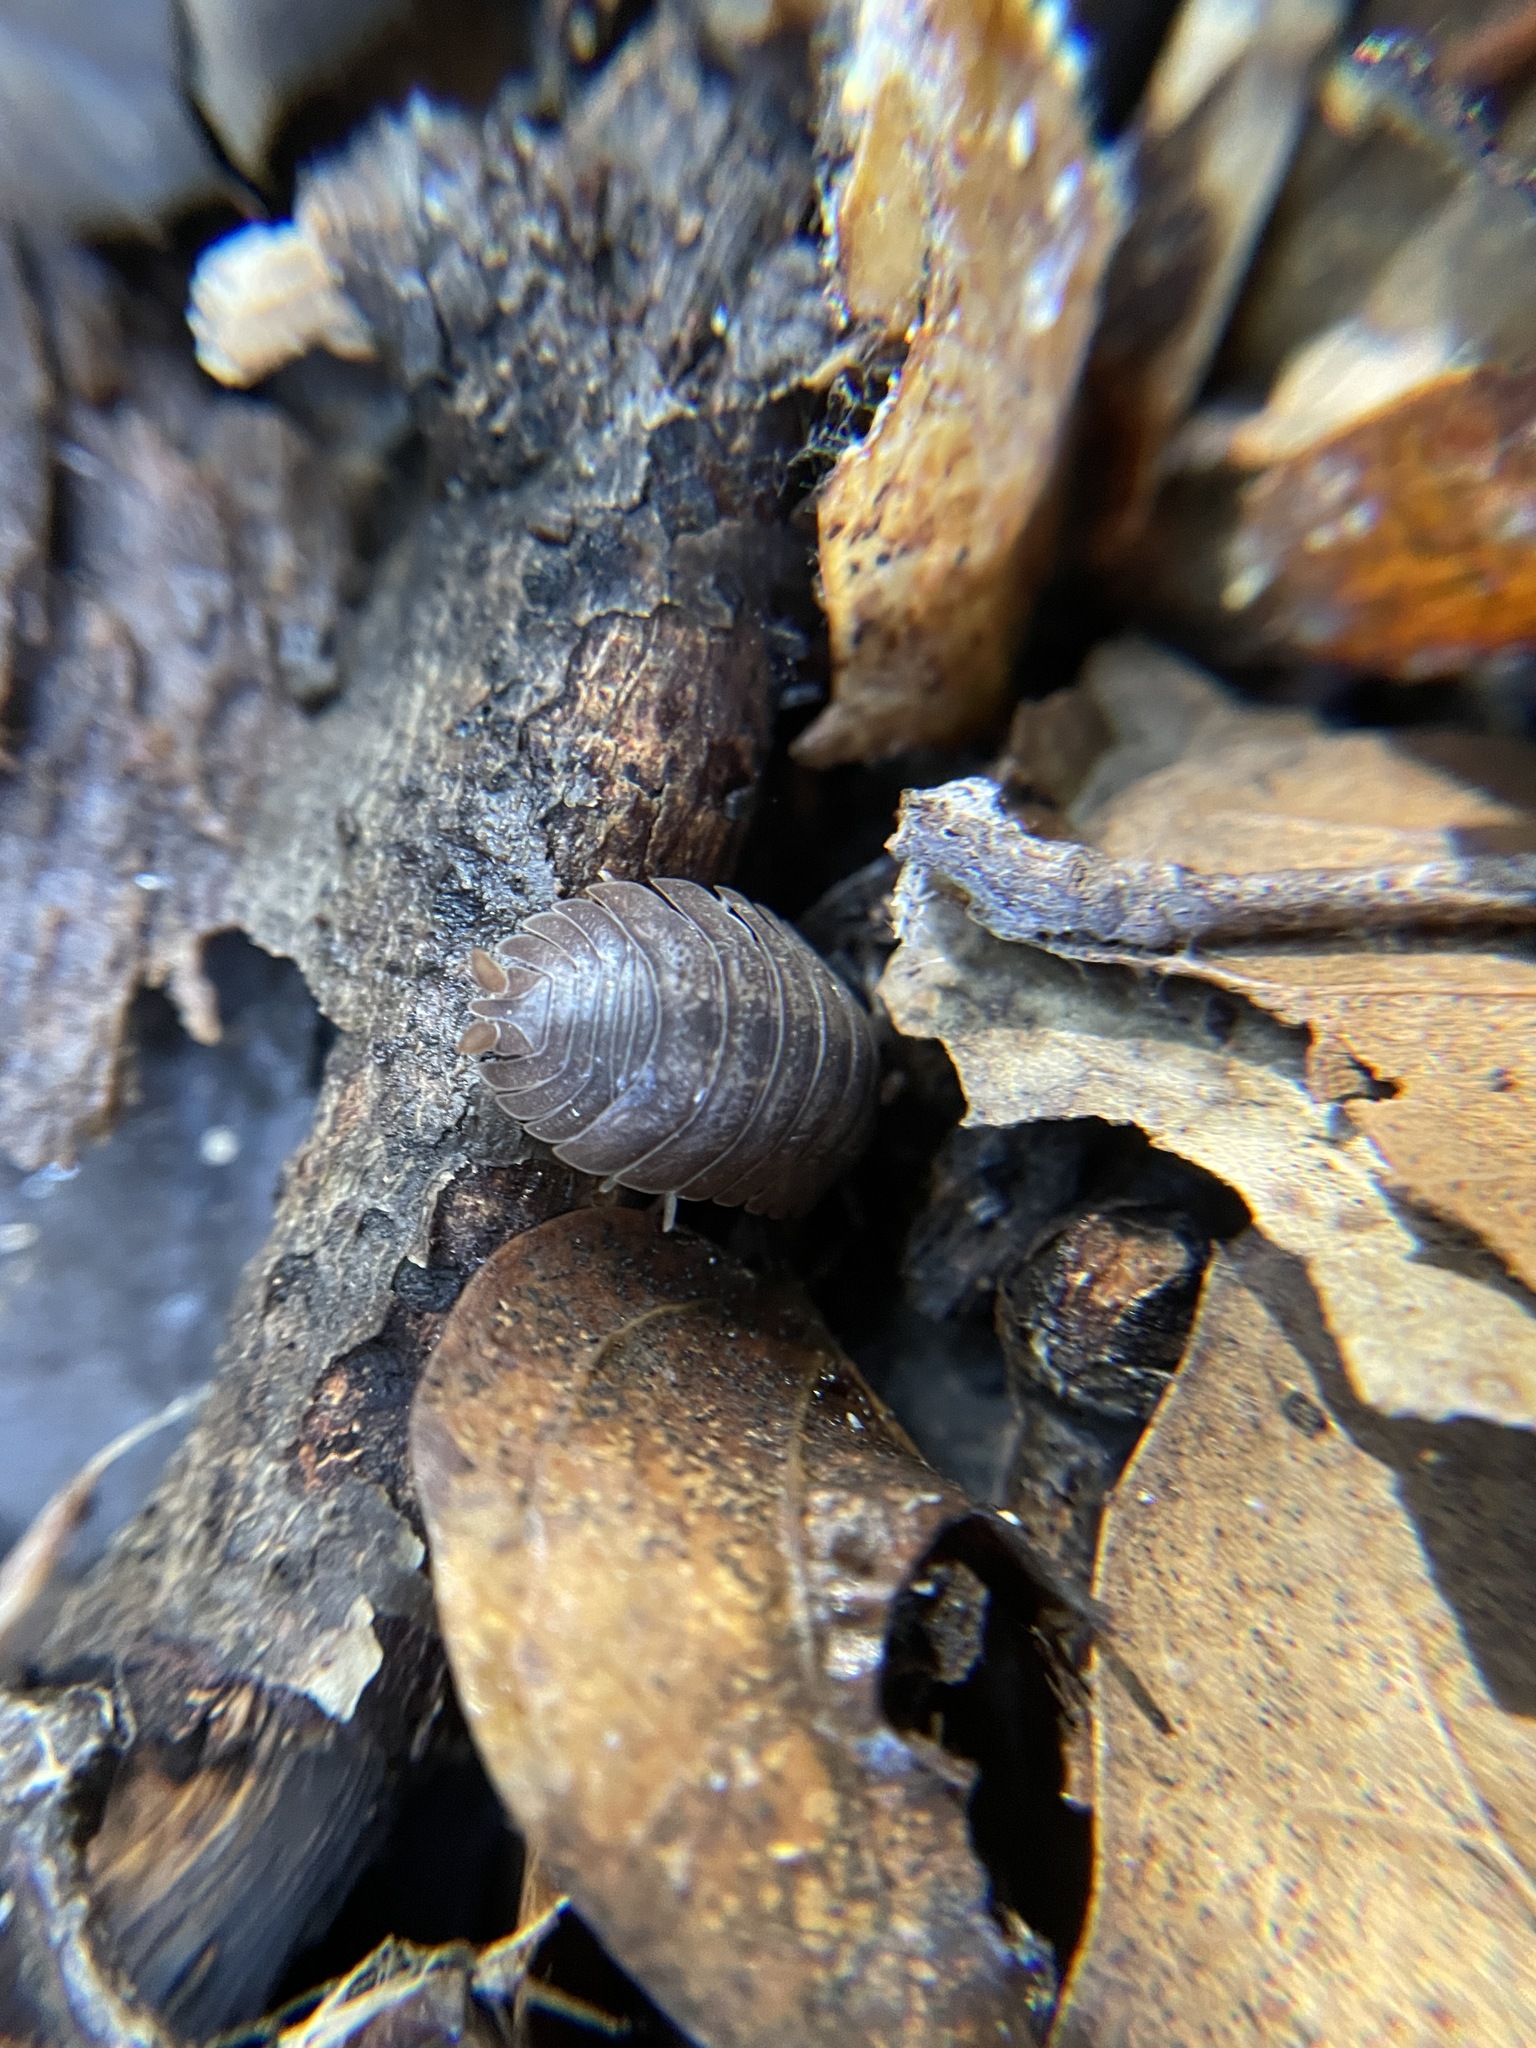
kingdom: Animalia
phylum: Arthropoda
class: Malacostraca
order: Isopoda
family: Porcellionidae
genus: Porcellio
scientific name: Porcellio dilatatus
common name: Isopod
